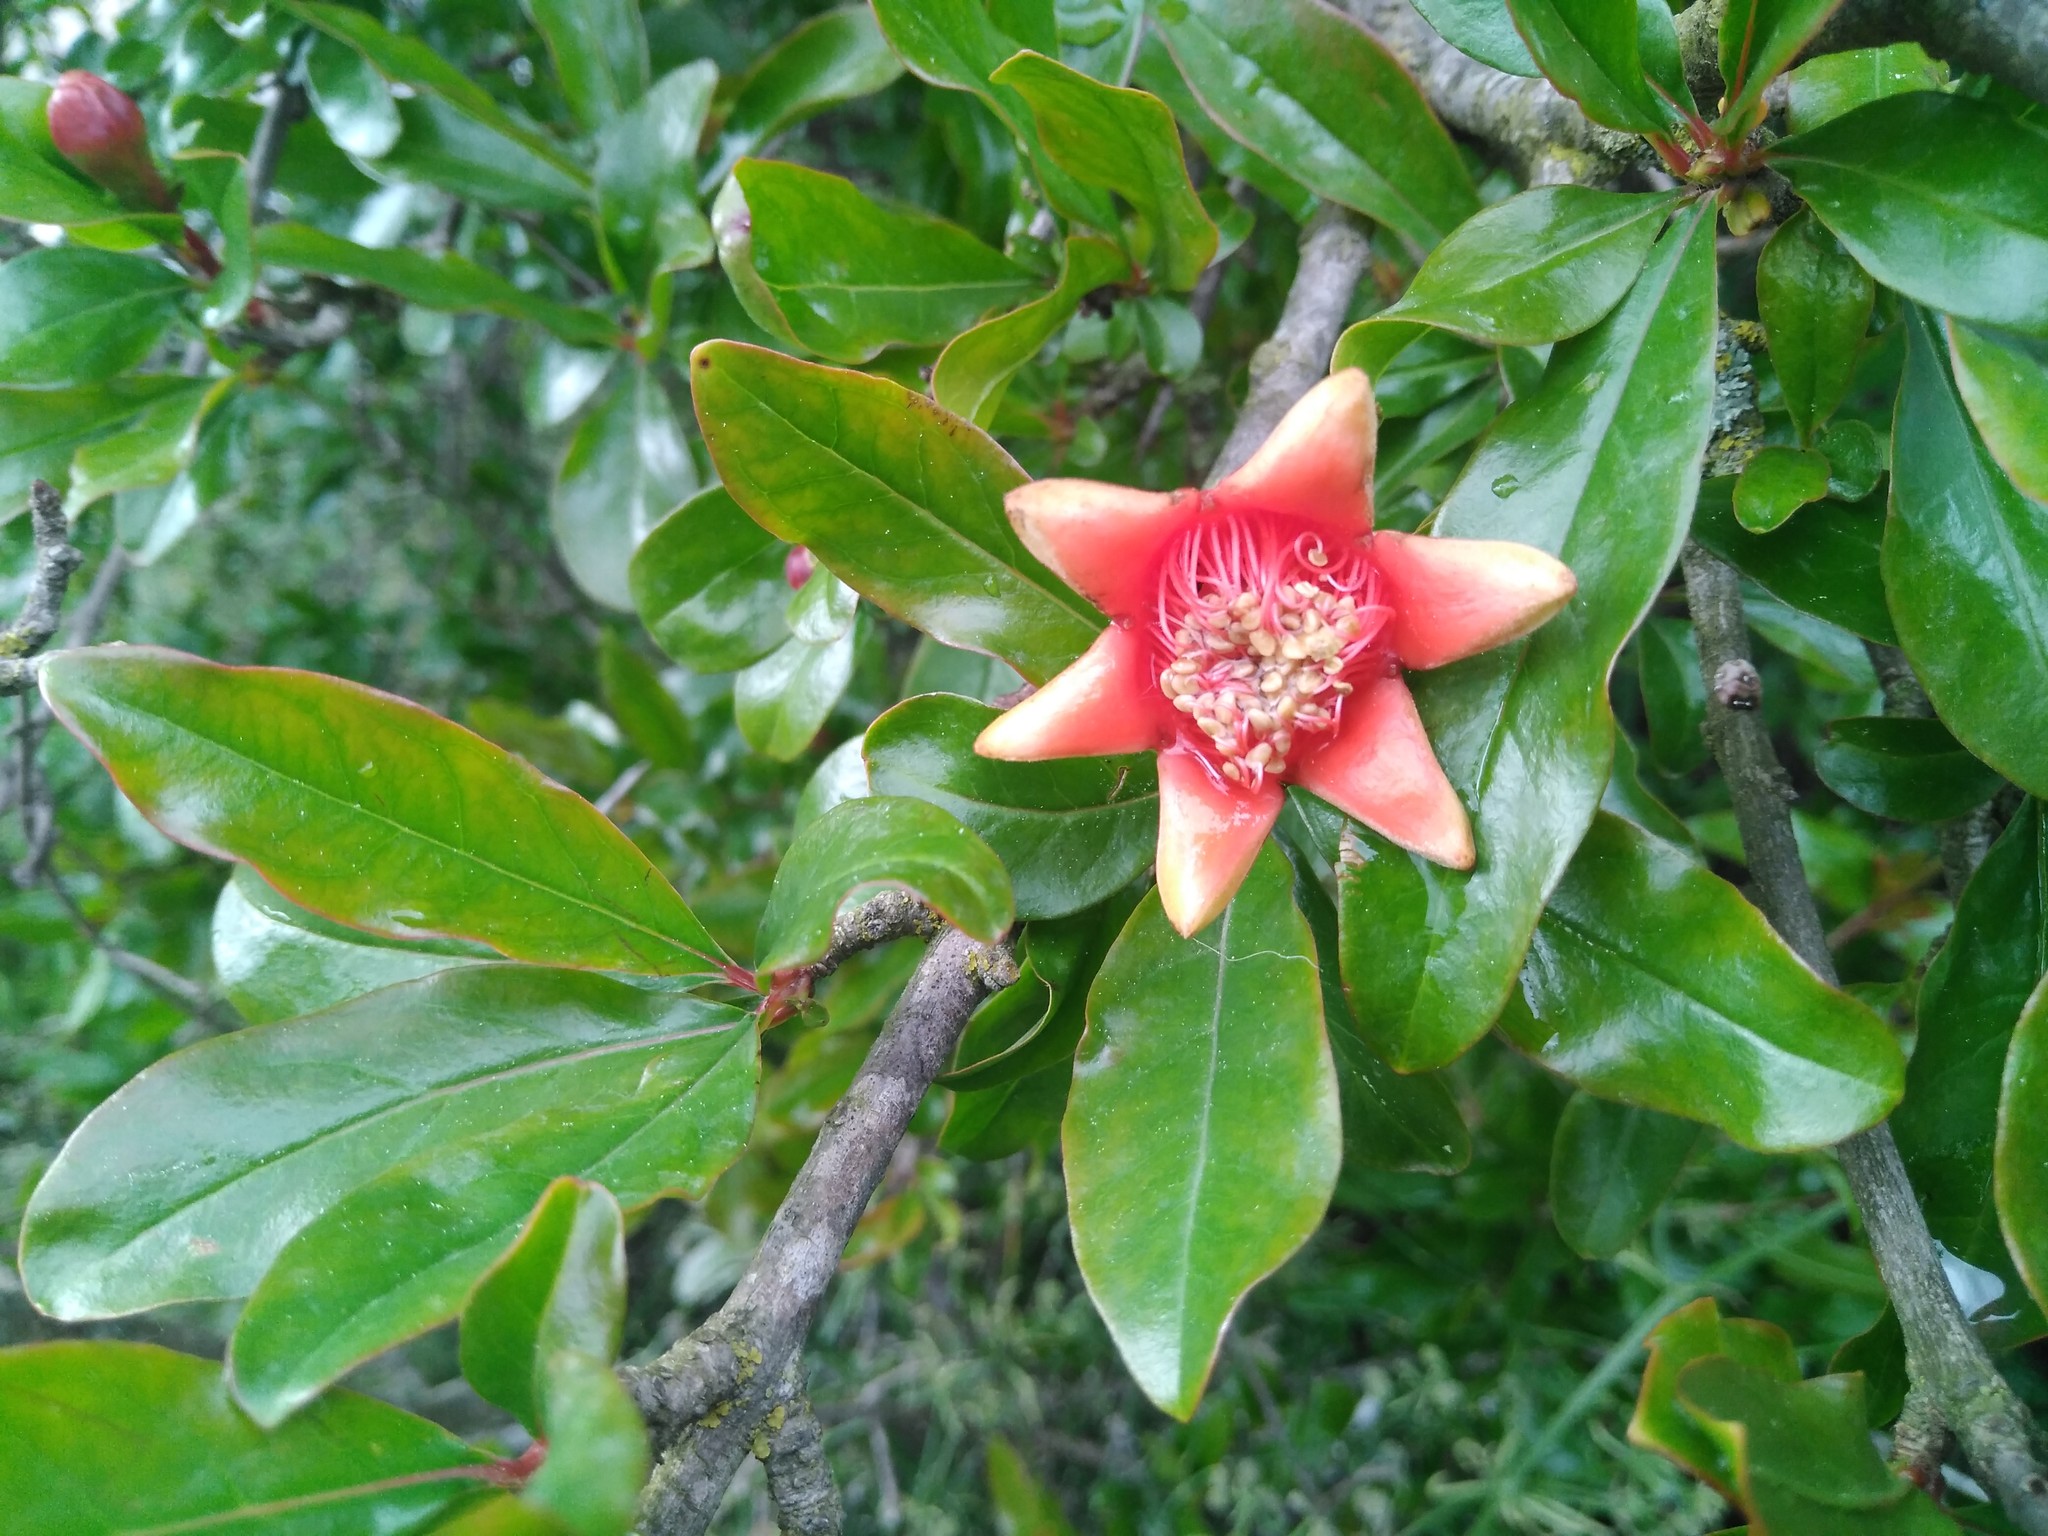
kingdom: Plantae
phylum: Tracheophyta
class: Magnoliopsida
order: Myrtales
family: Lythraceae
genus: Punica
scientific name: Punica granatum
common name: Pomegranate
